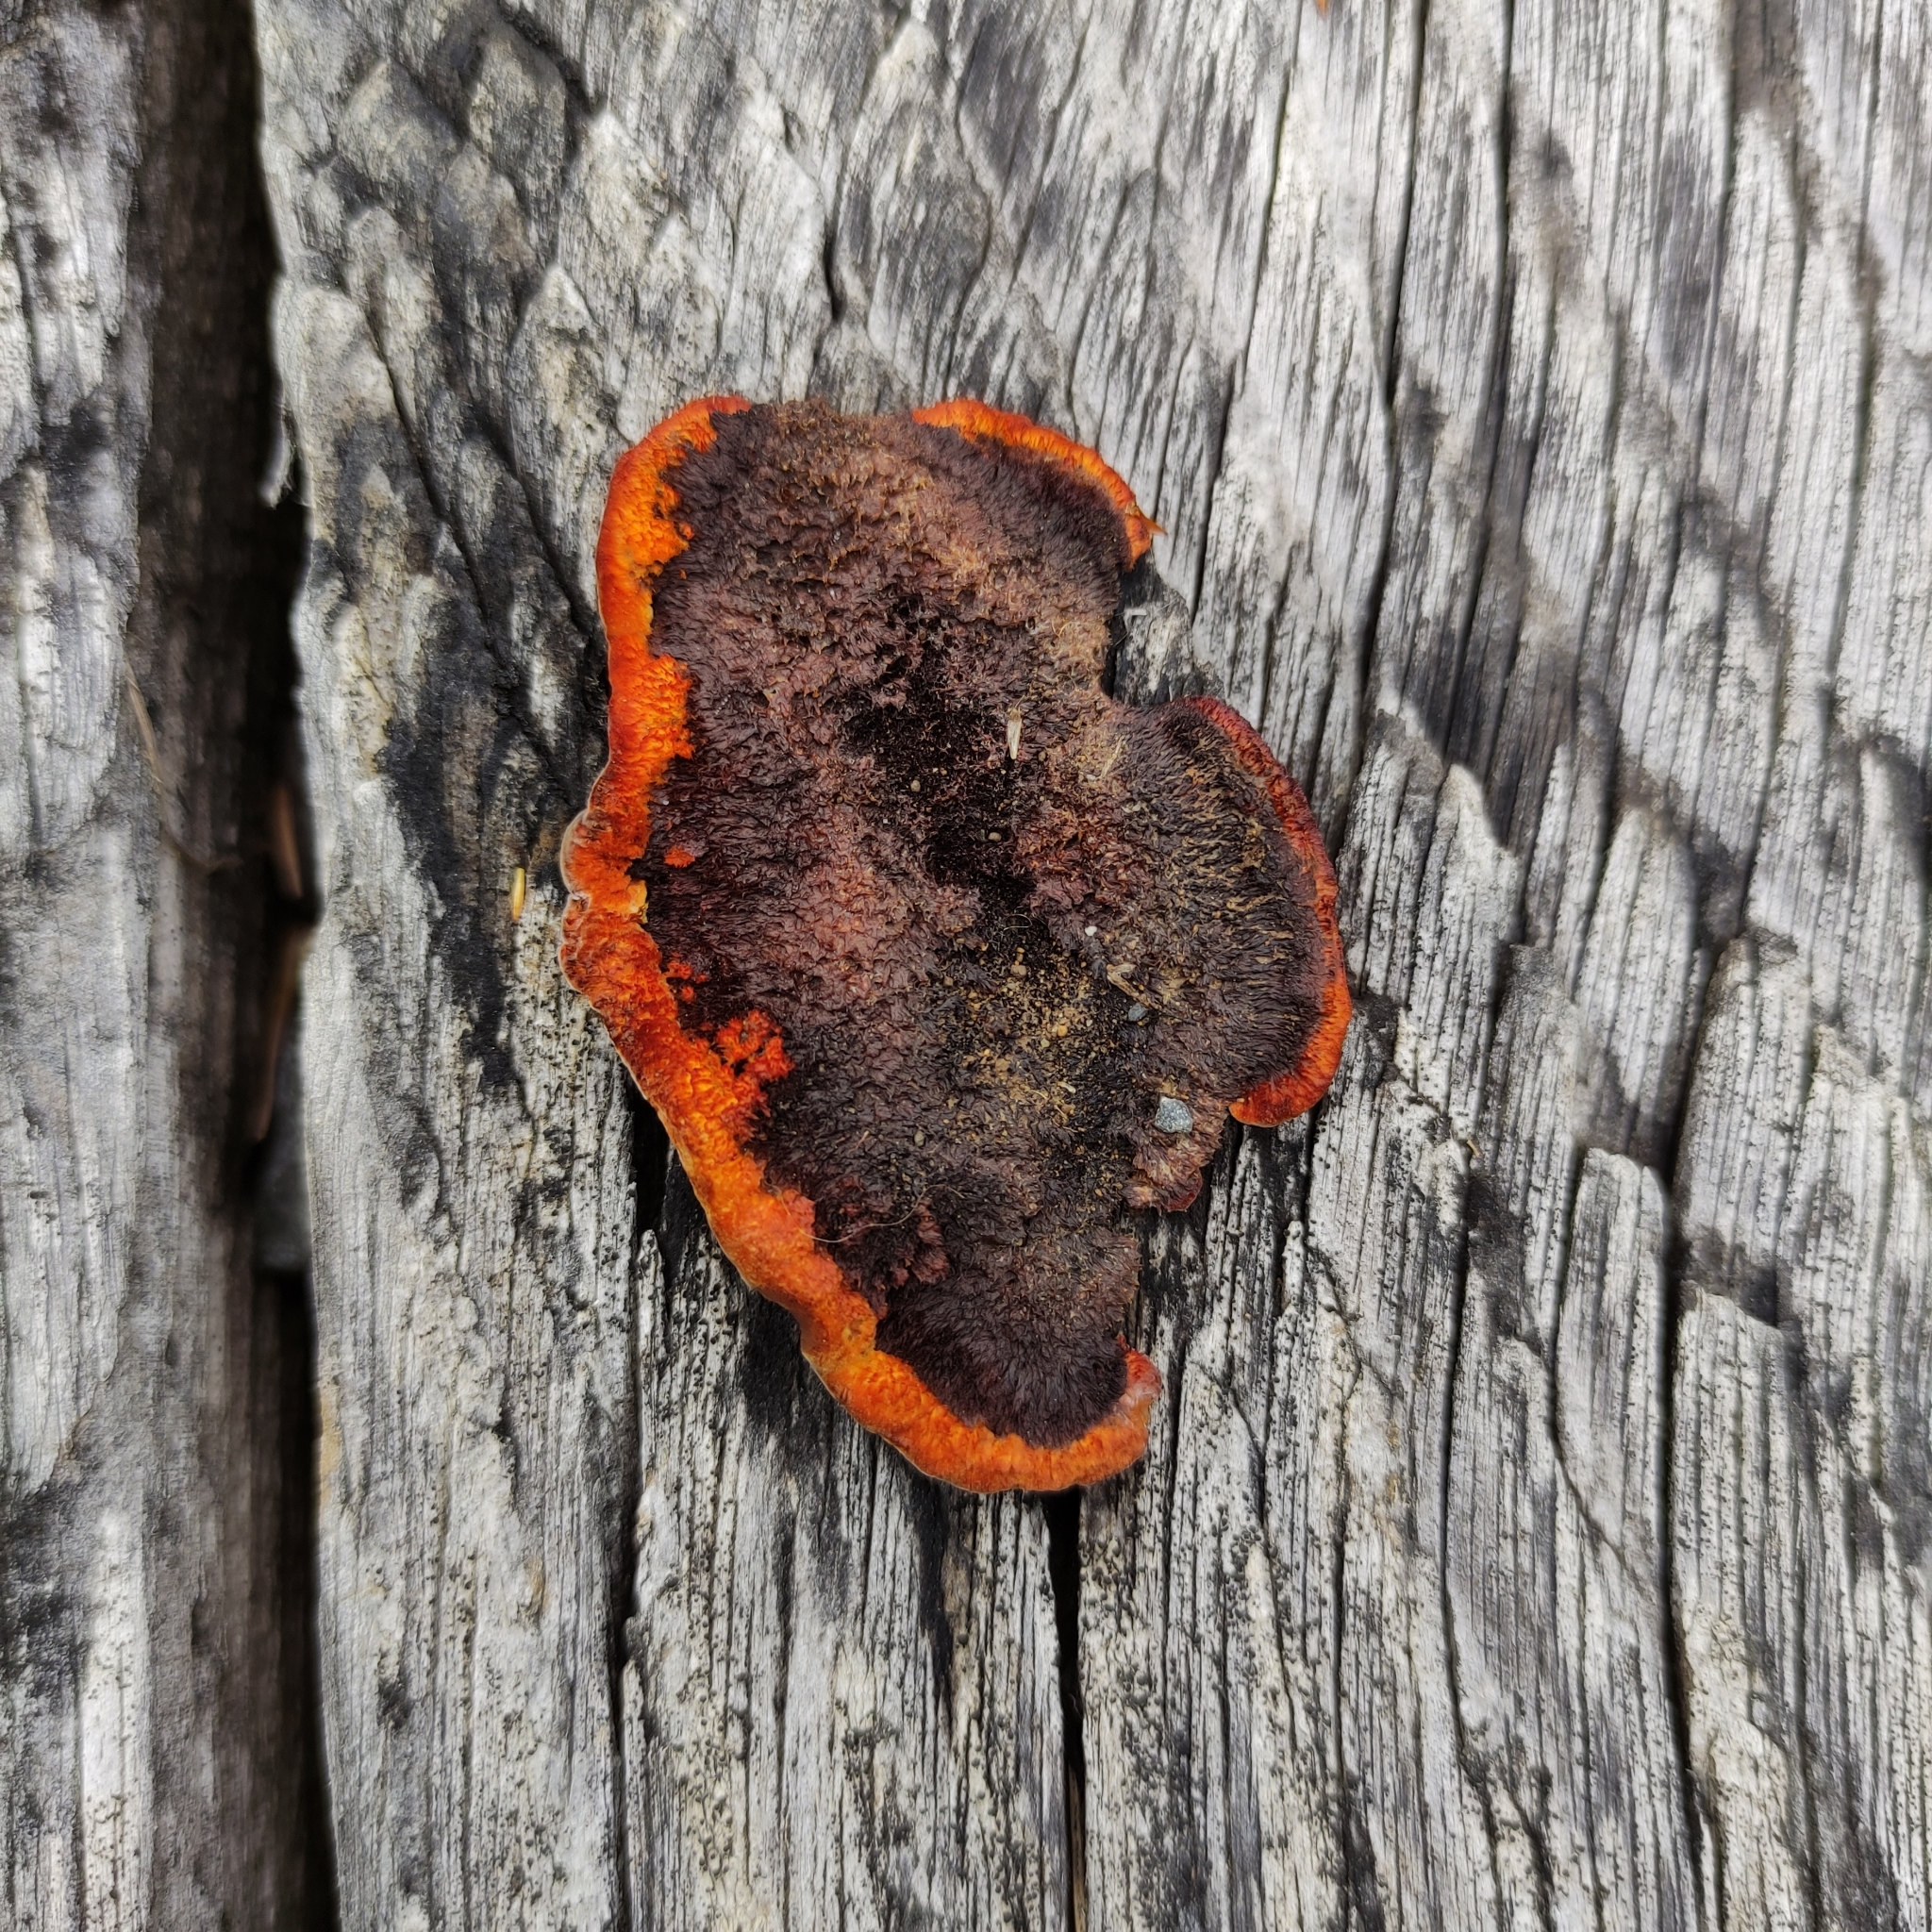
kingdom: Fungi
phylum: Basidiomycota
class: Agaricomycetes
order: Gloeophyllales
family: Gloeophyllaceae
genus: Gloeophyllum
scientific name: Gloeophyllum sepiarium
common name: Conifer mazegill
